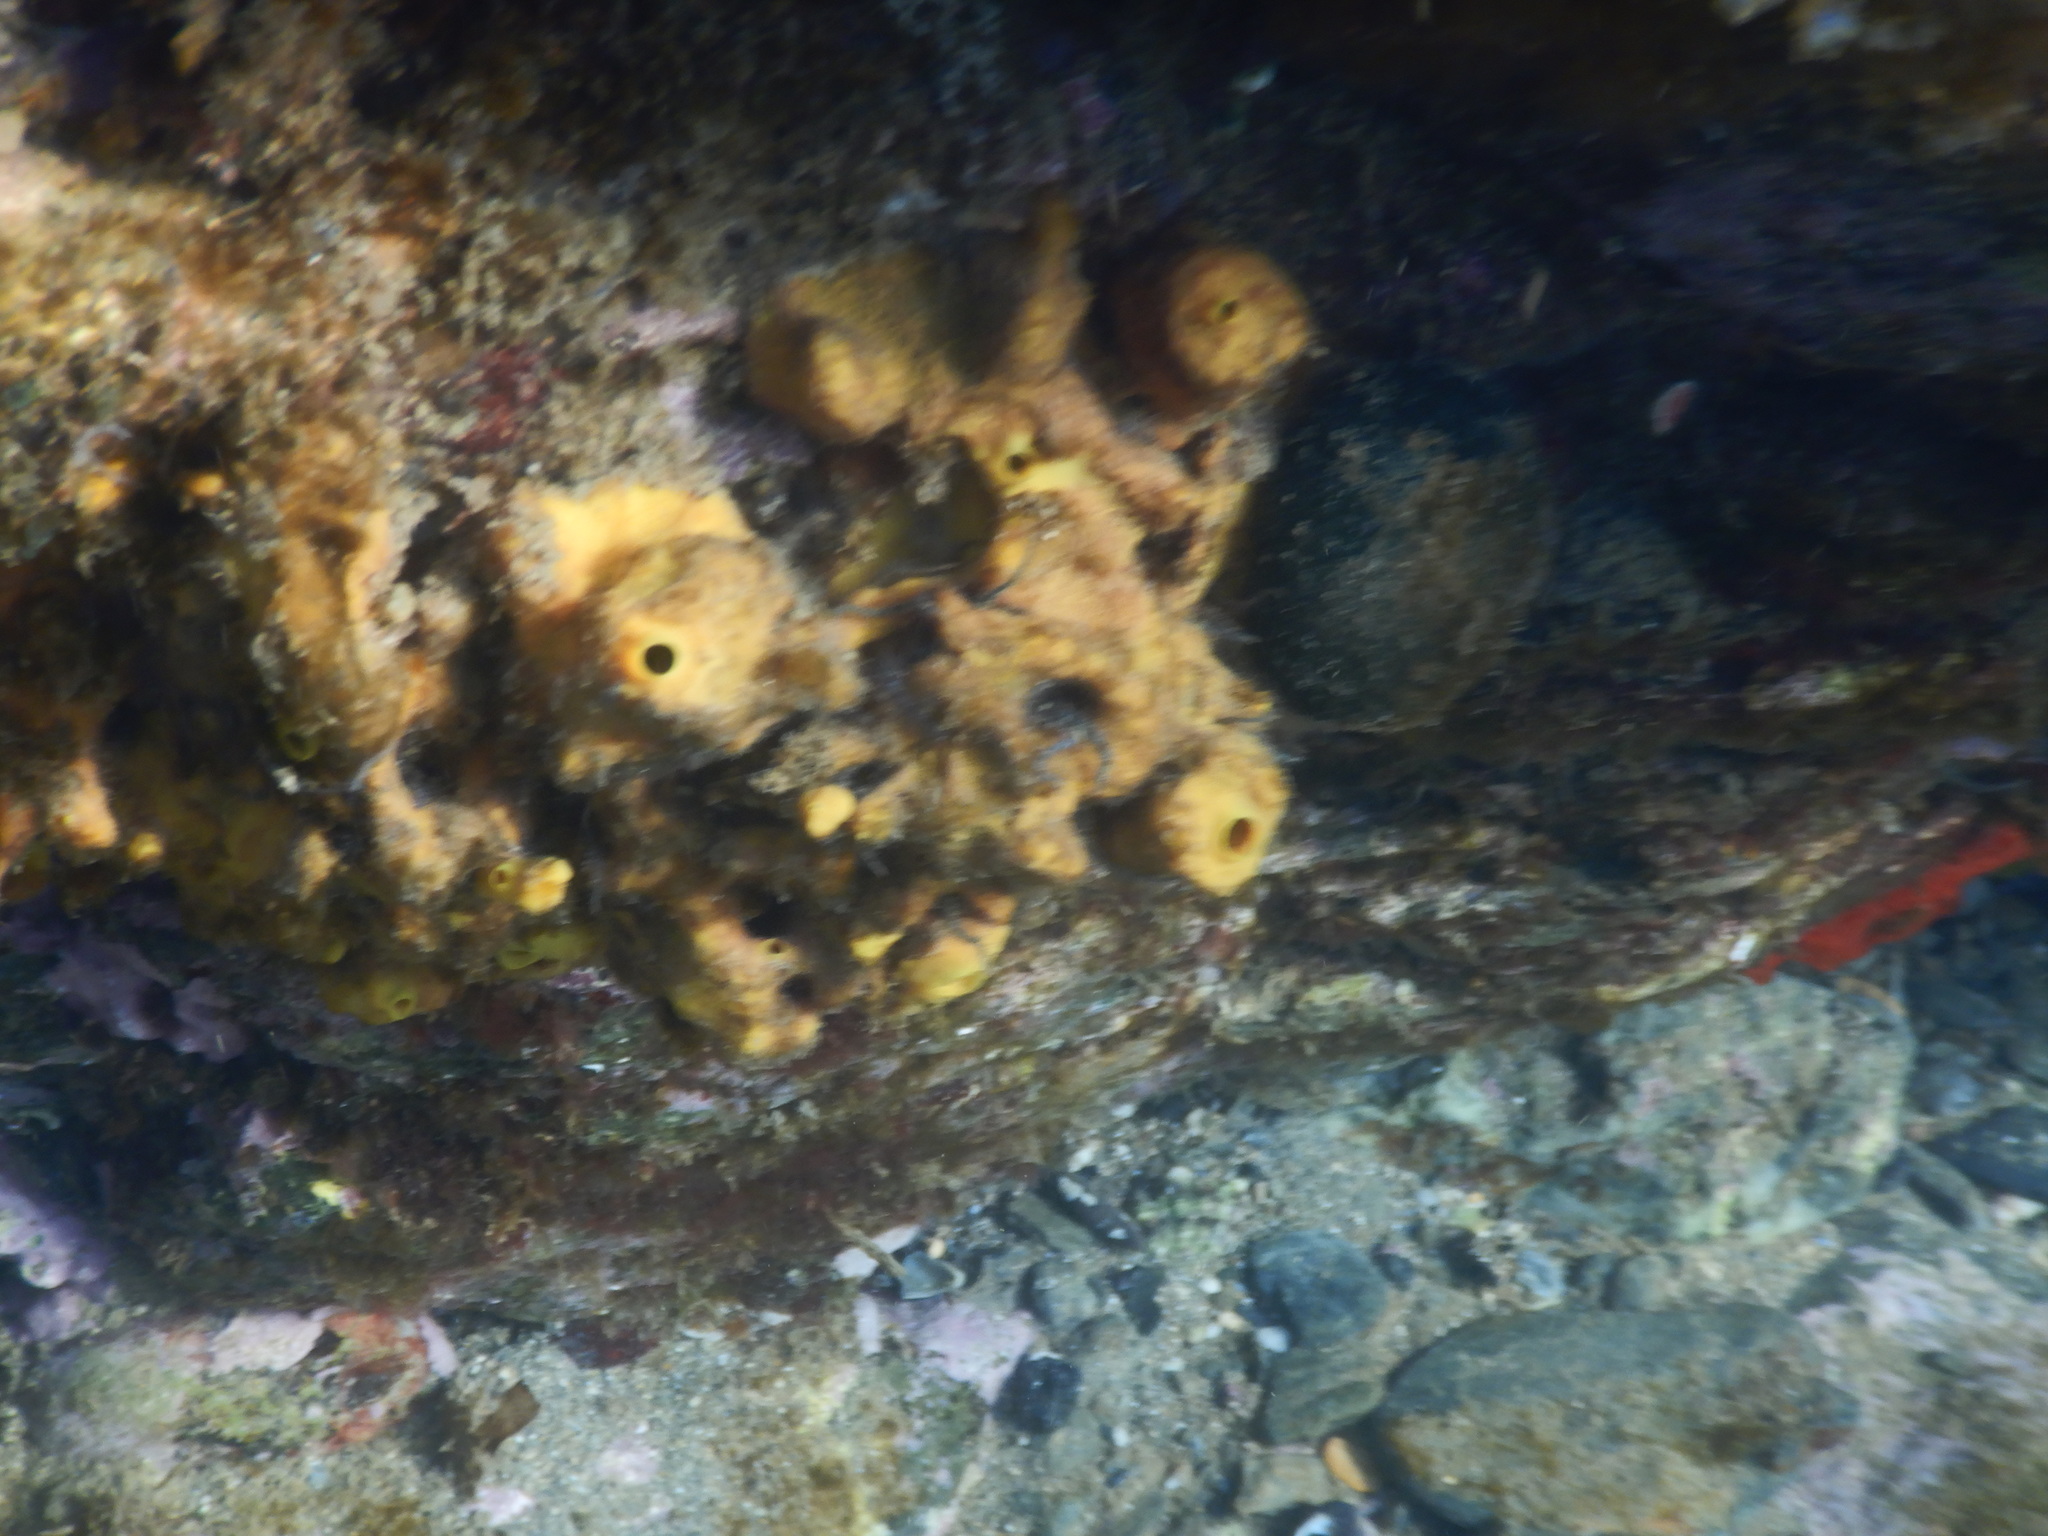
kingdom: Animalia
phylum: Porifera
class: Demospongiae
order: Verongiida
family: Aplysinidae
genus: Aplysina
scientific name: Aplysina aerophoba
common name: Aureate sponge
